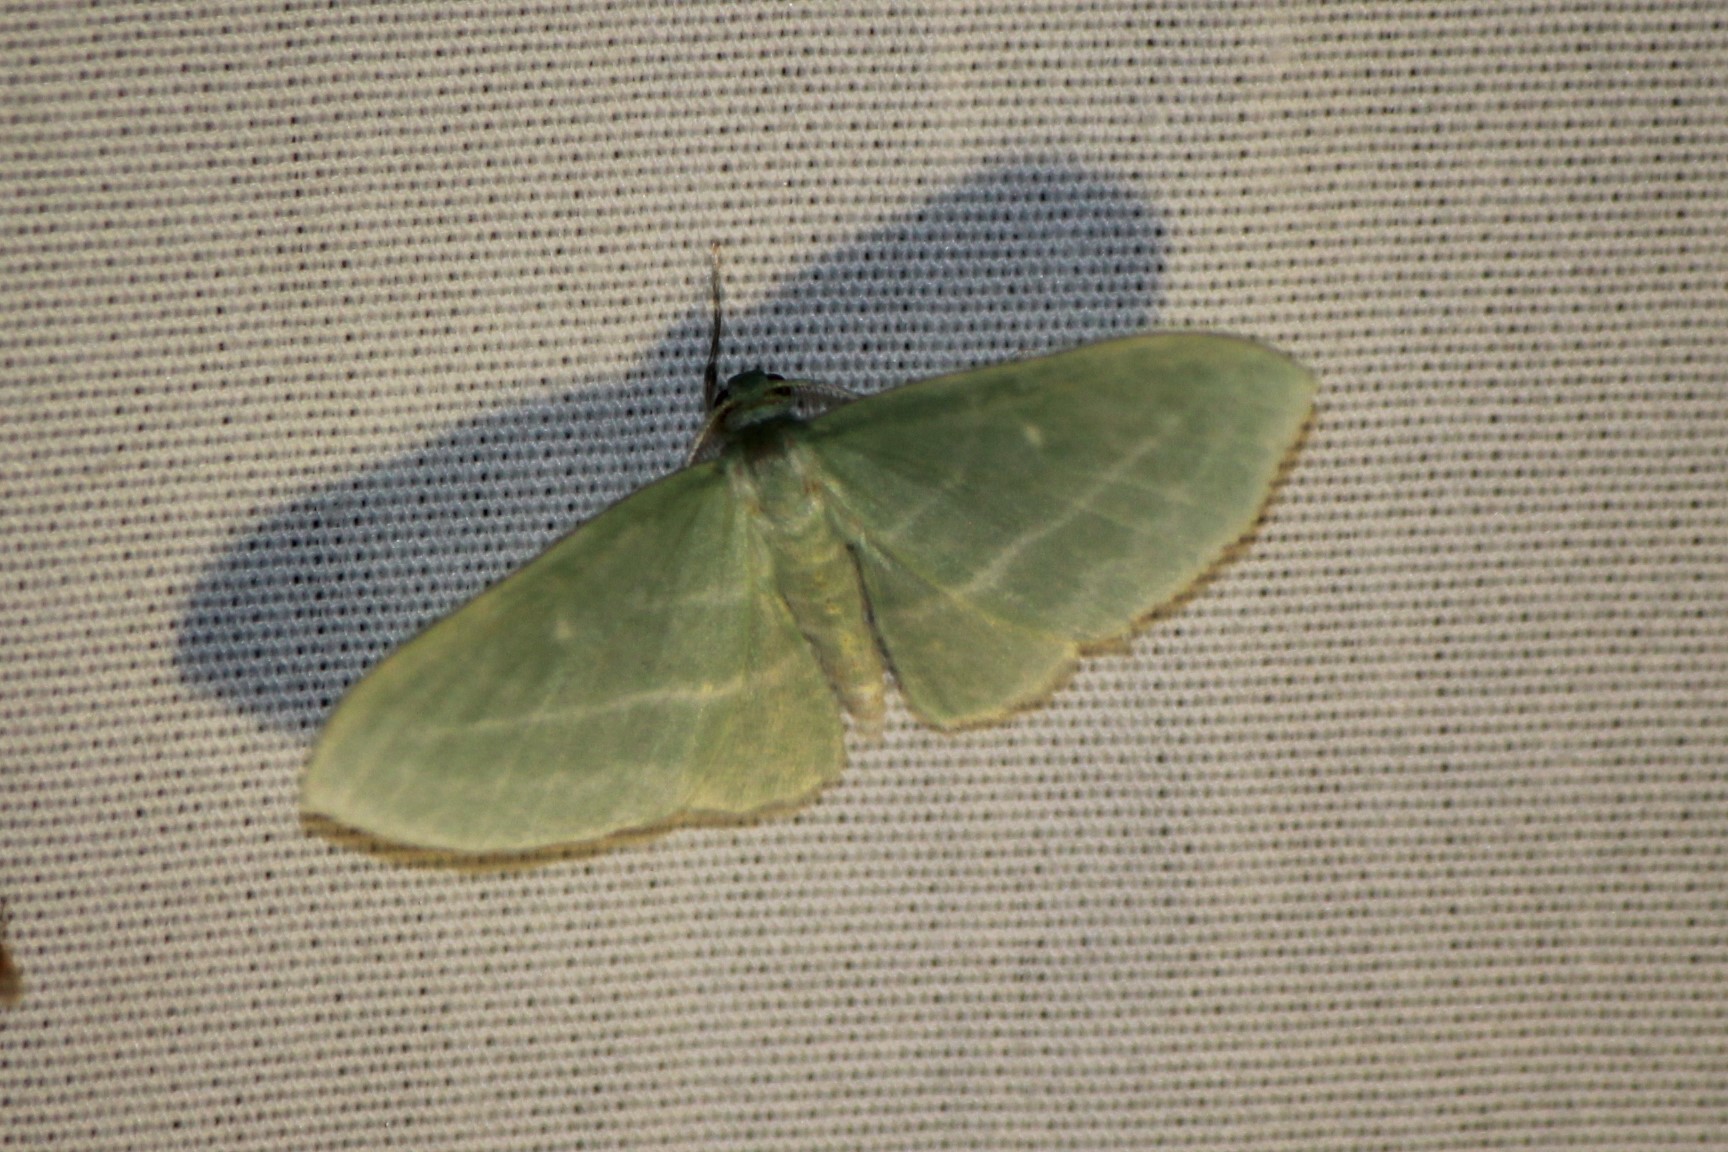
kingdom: Animalia
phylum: Arthropoda
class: Insecta
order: Lepidoptera
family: Geometridae
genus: Dyspteris
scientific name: Dyspteris abortivaria
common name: Bad-wing
